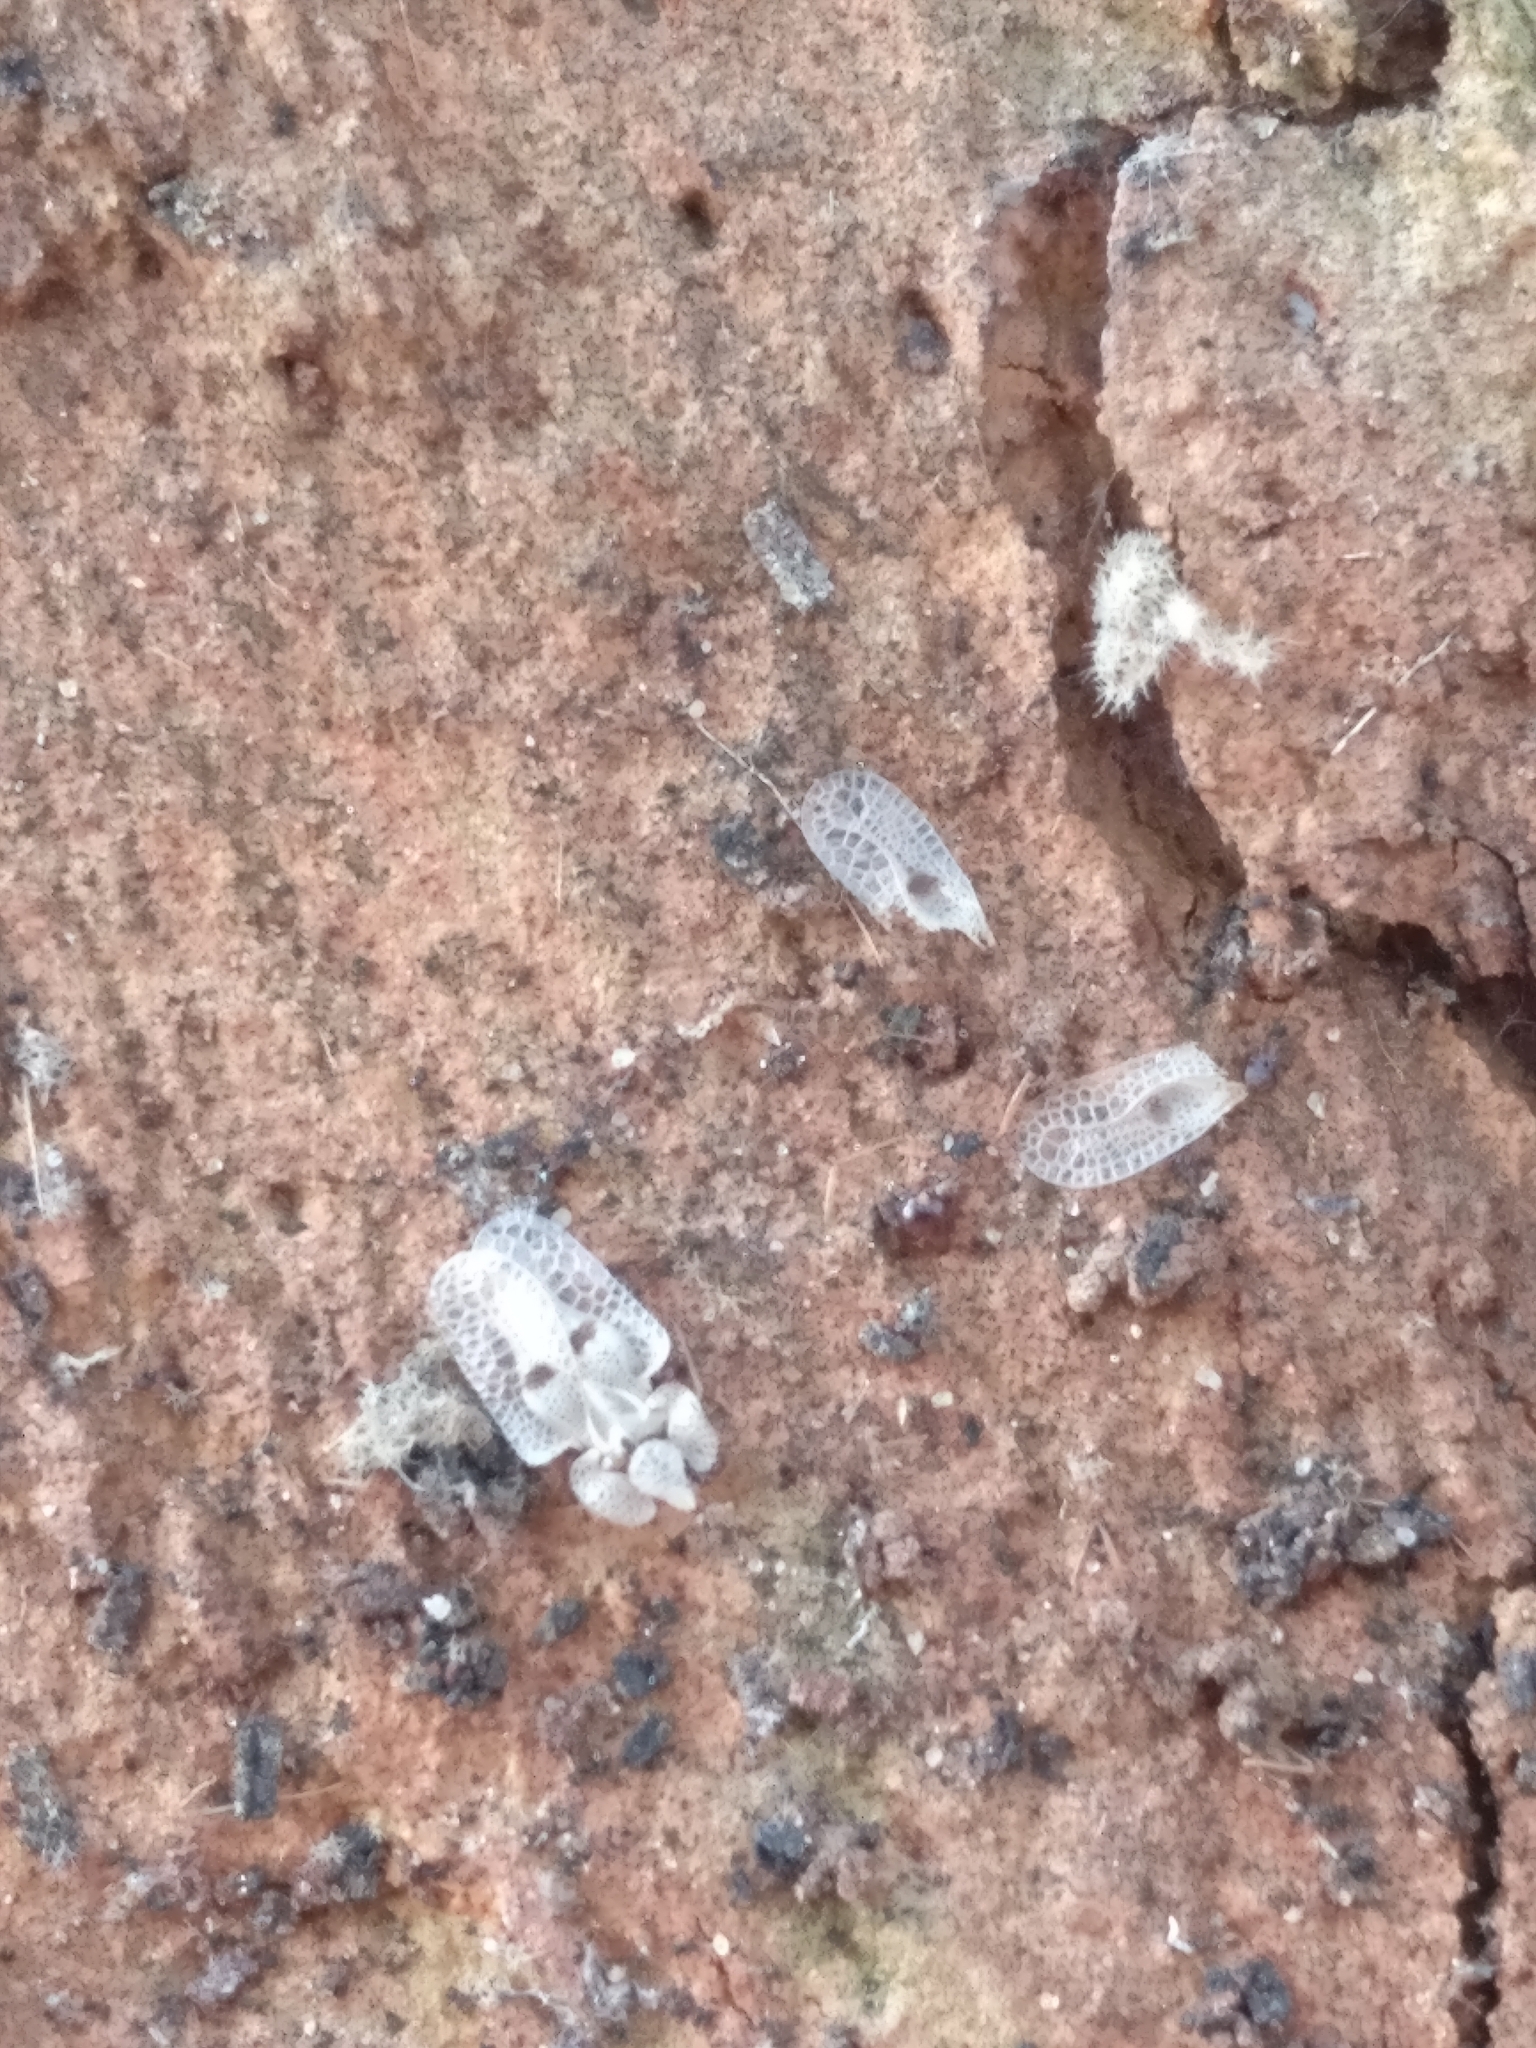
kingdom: Animalia
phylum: Arthropoda
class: Insecta
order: Hemiptera
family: Tingidae
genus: Corythucha
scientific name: Corythucha ciliata
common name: Sycamore lace bug
